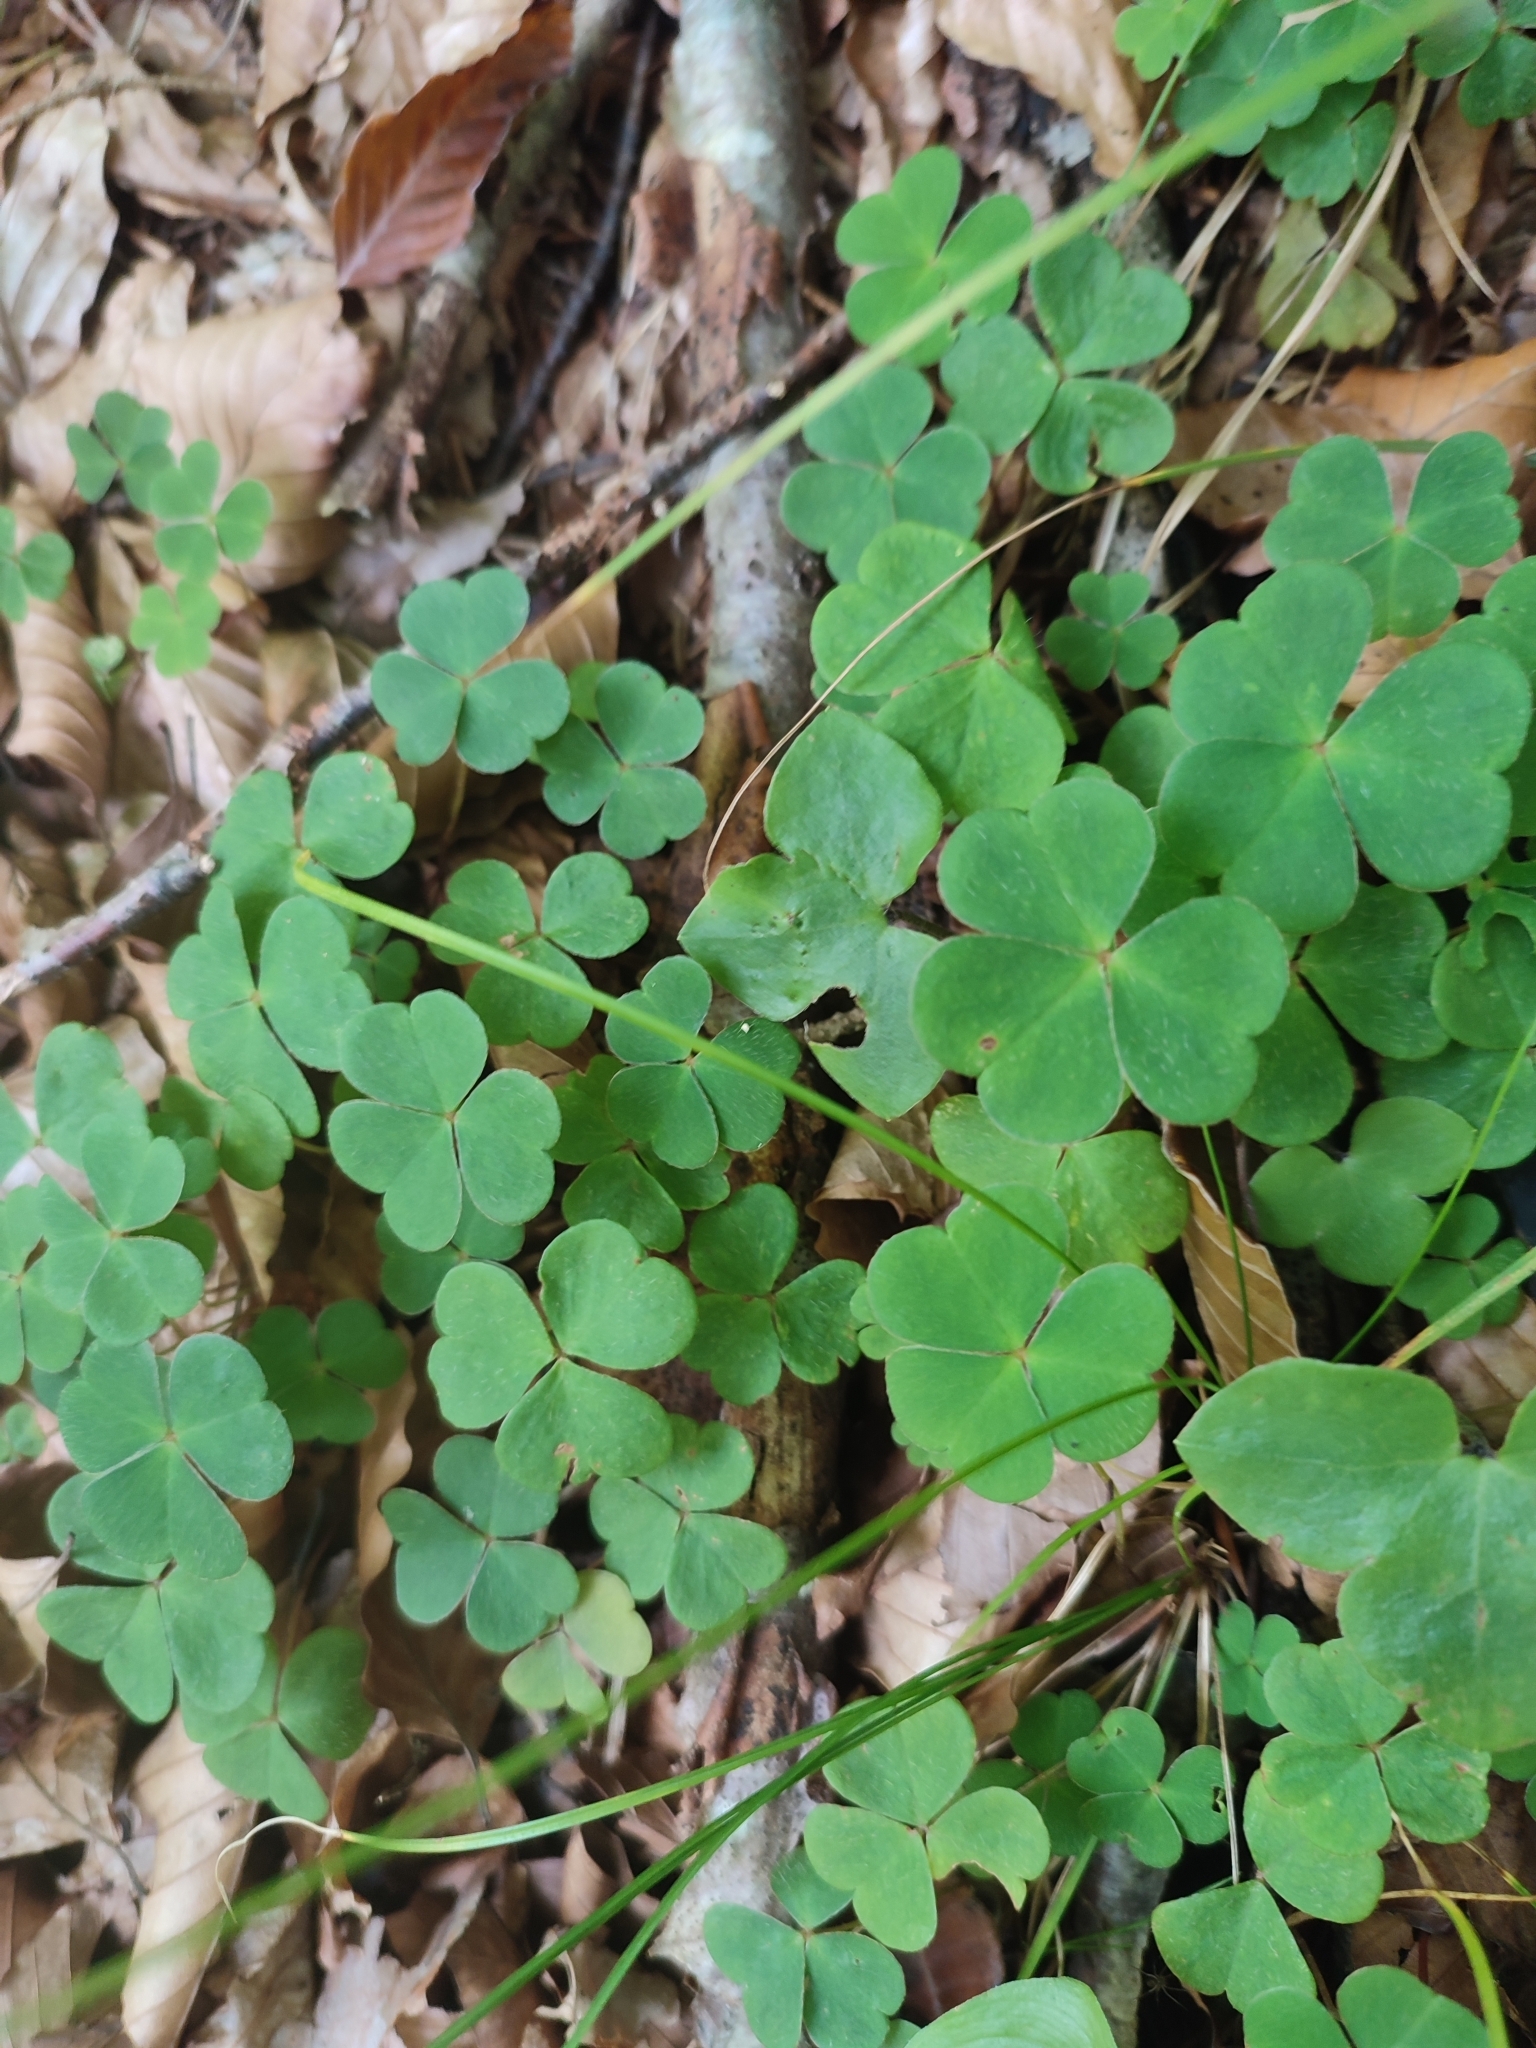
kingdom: Plantae
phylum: Tracheophyta
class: Magnoliopsida
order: Oxalidales
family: Oxalidaceae
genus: Oxalis
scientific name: Oxalis acetosella
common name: Wood-sorrel
